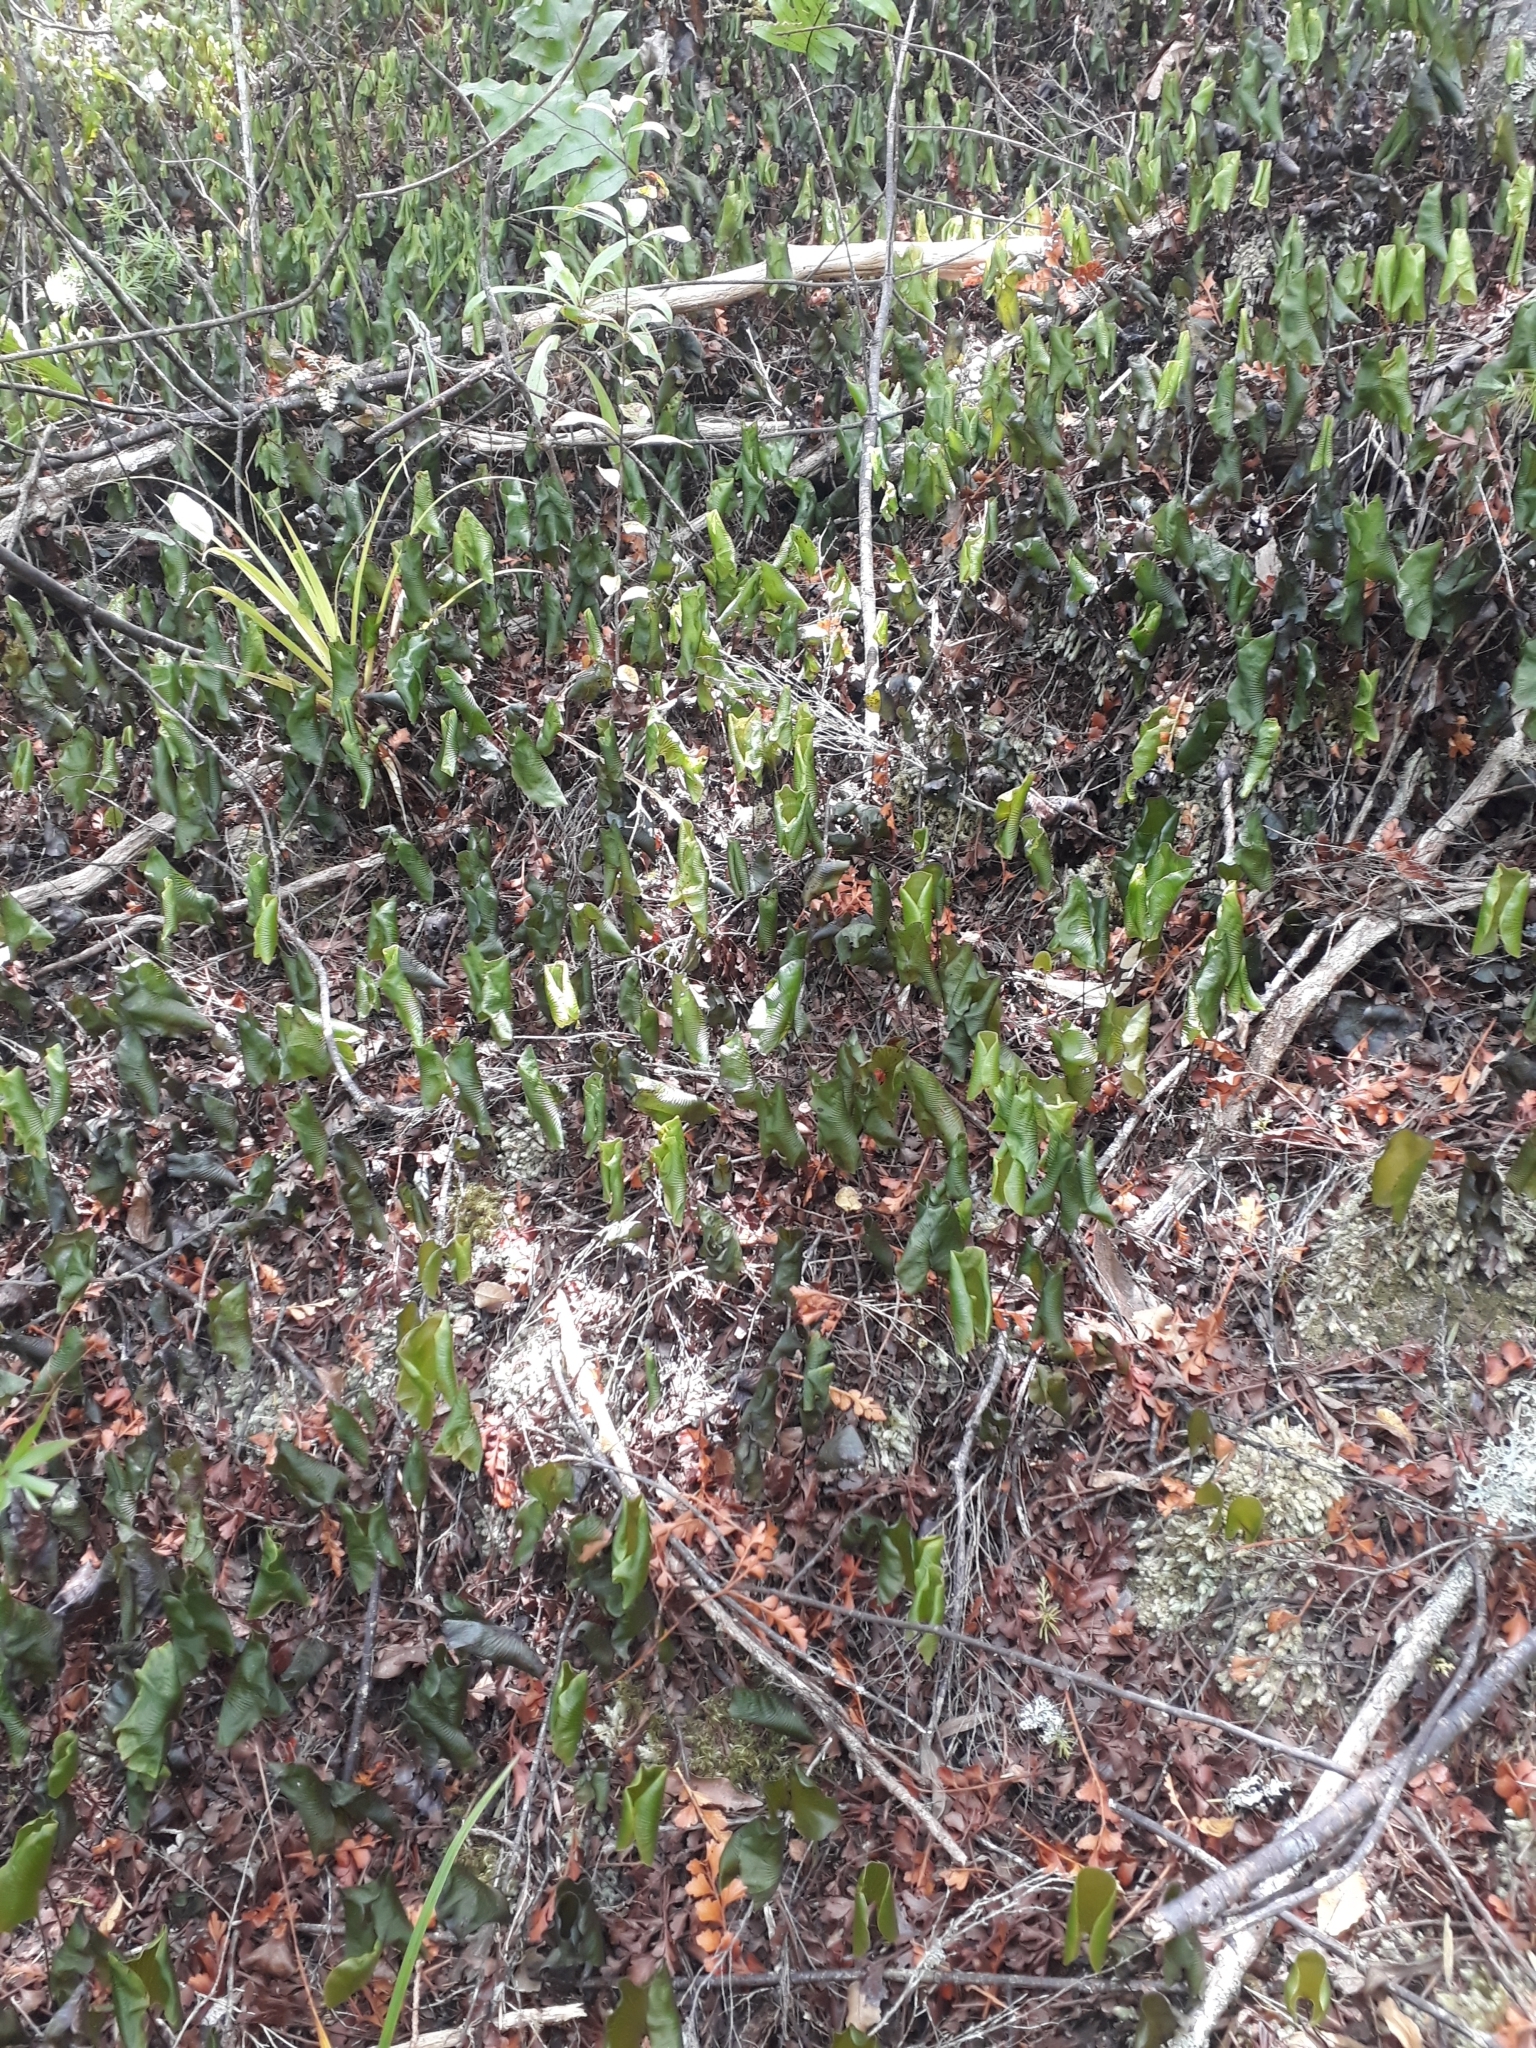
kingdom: Plantae
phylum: Tracheophyta
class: Polypodiopsida
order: Hymenophyllales
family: Hymenophyllaceae
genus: Hymenophyllum
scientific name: Hymenophyllum nephrophyllum
